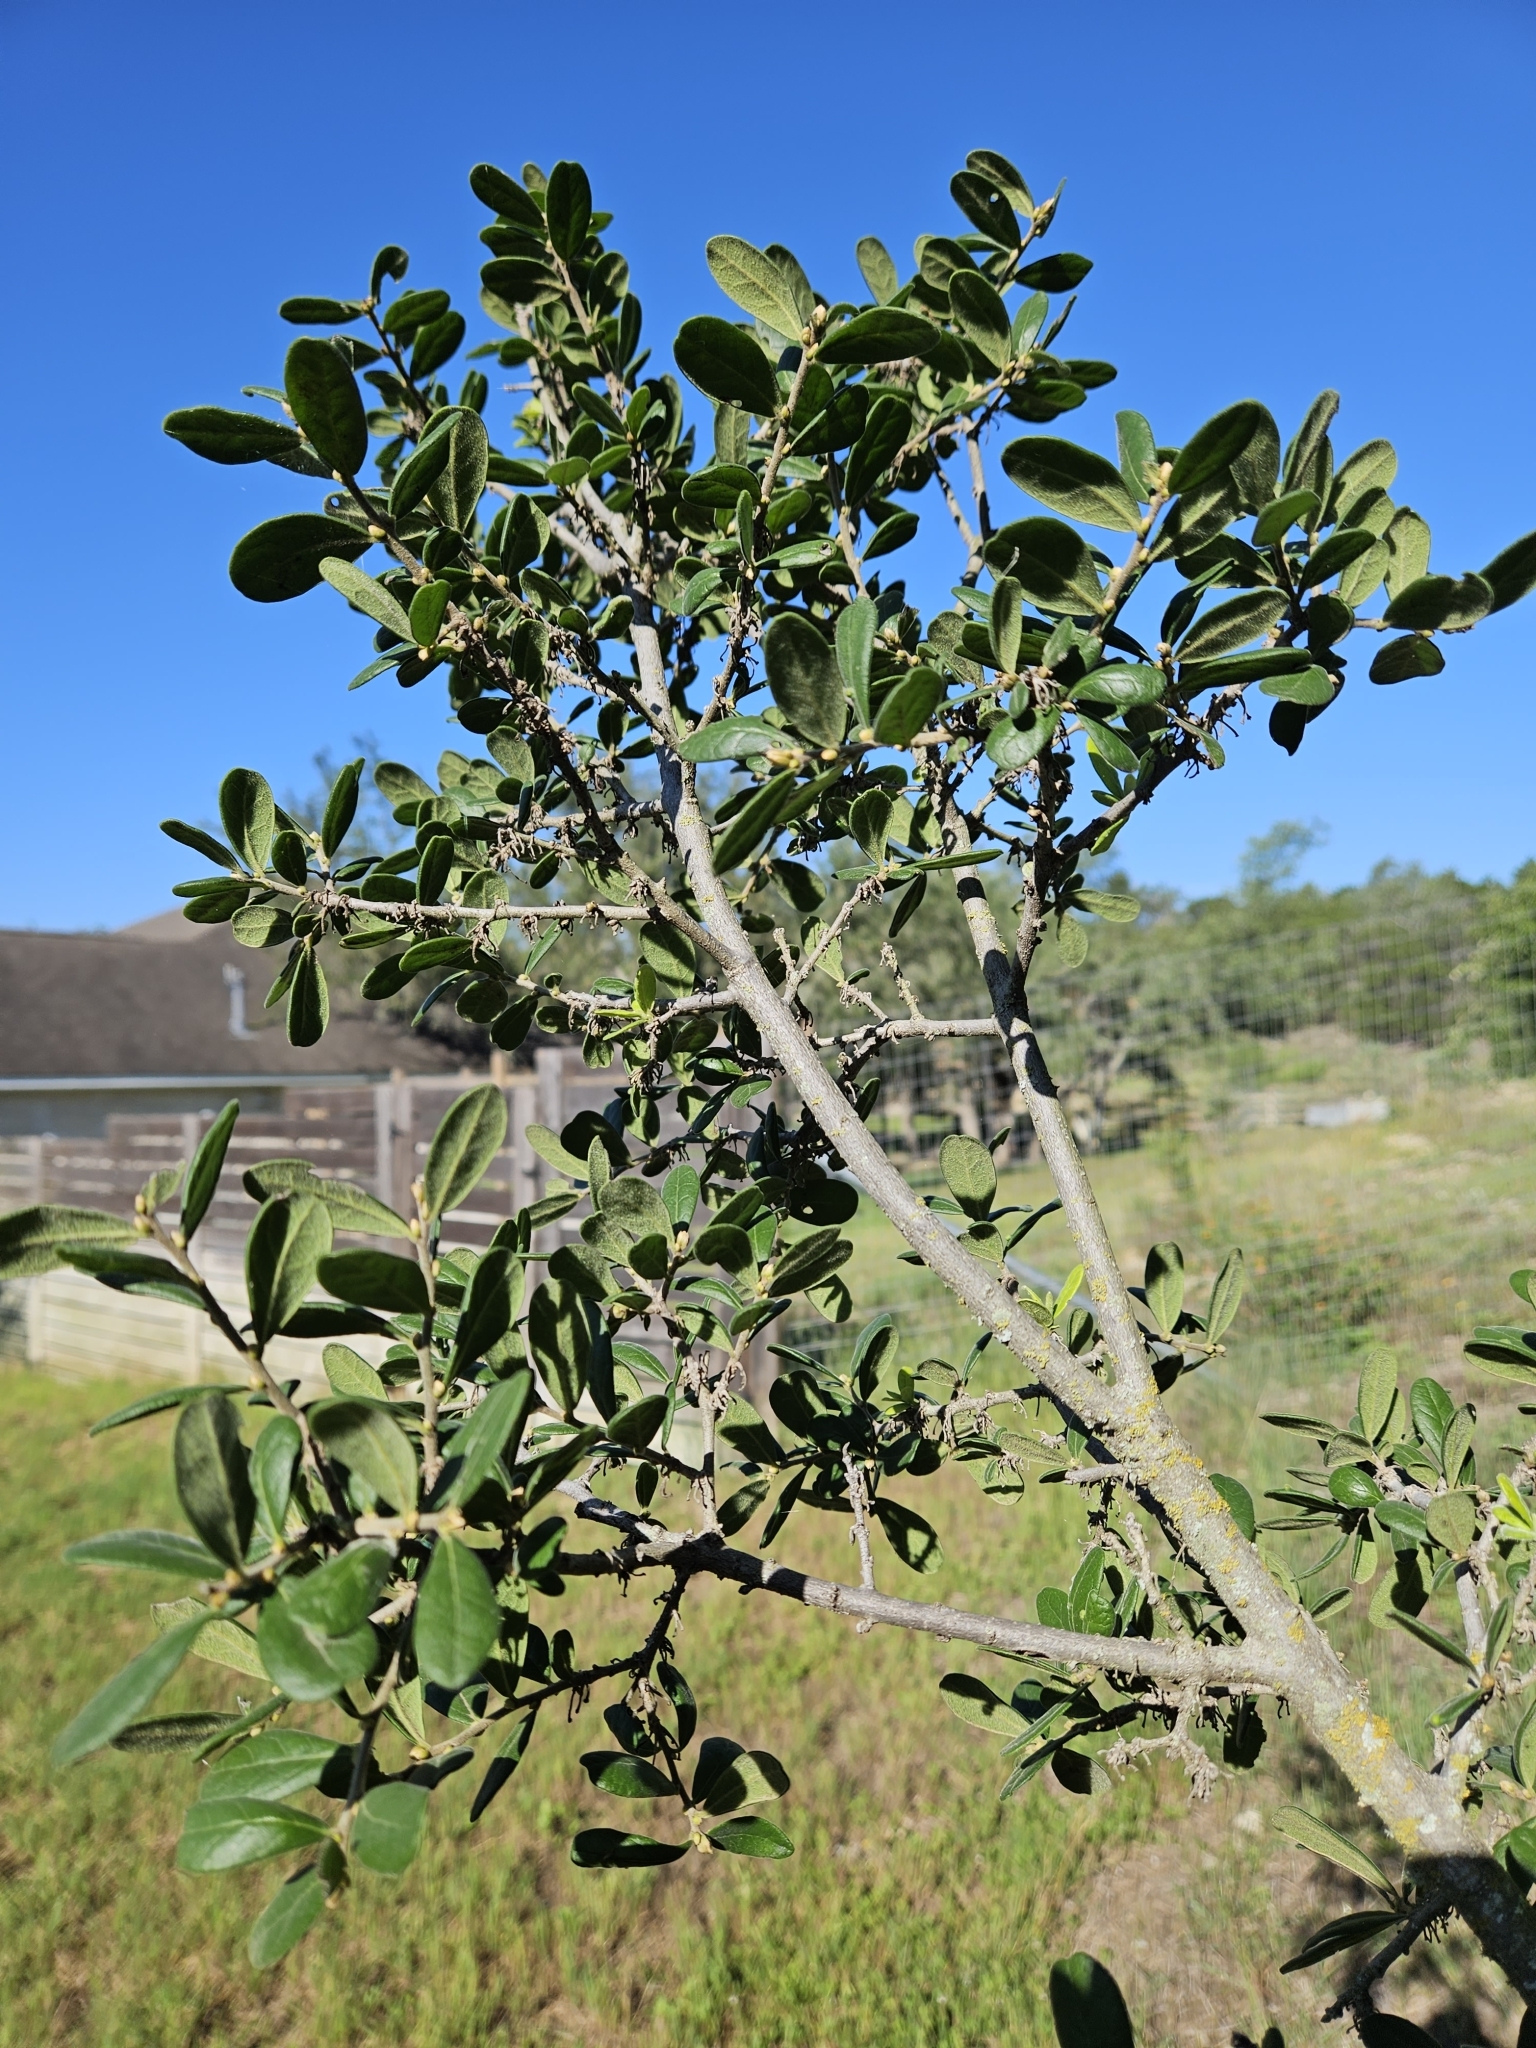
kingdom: Plantae
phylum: Tracheophyta
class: Magnoliopsida
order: Ericales
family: Ebenaceae
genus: Diospyros
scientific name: Diospyros texana
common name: Texas persimmon
